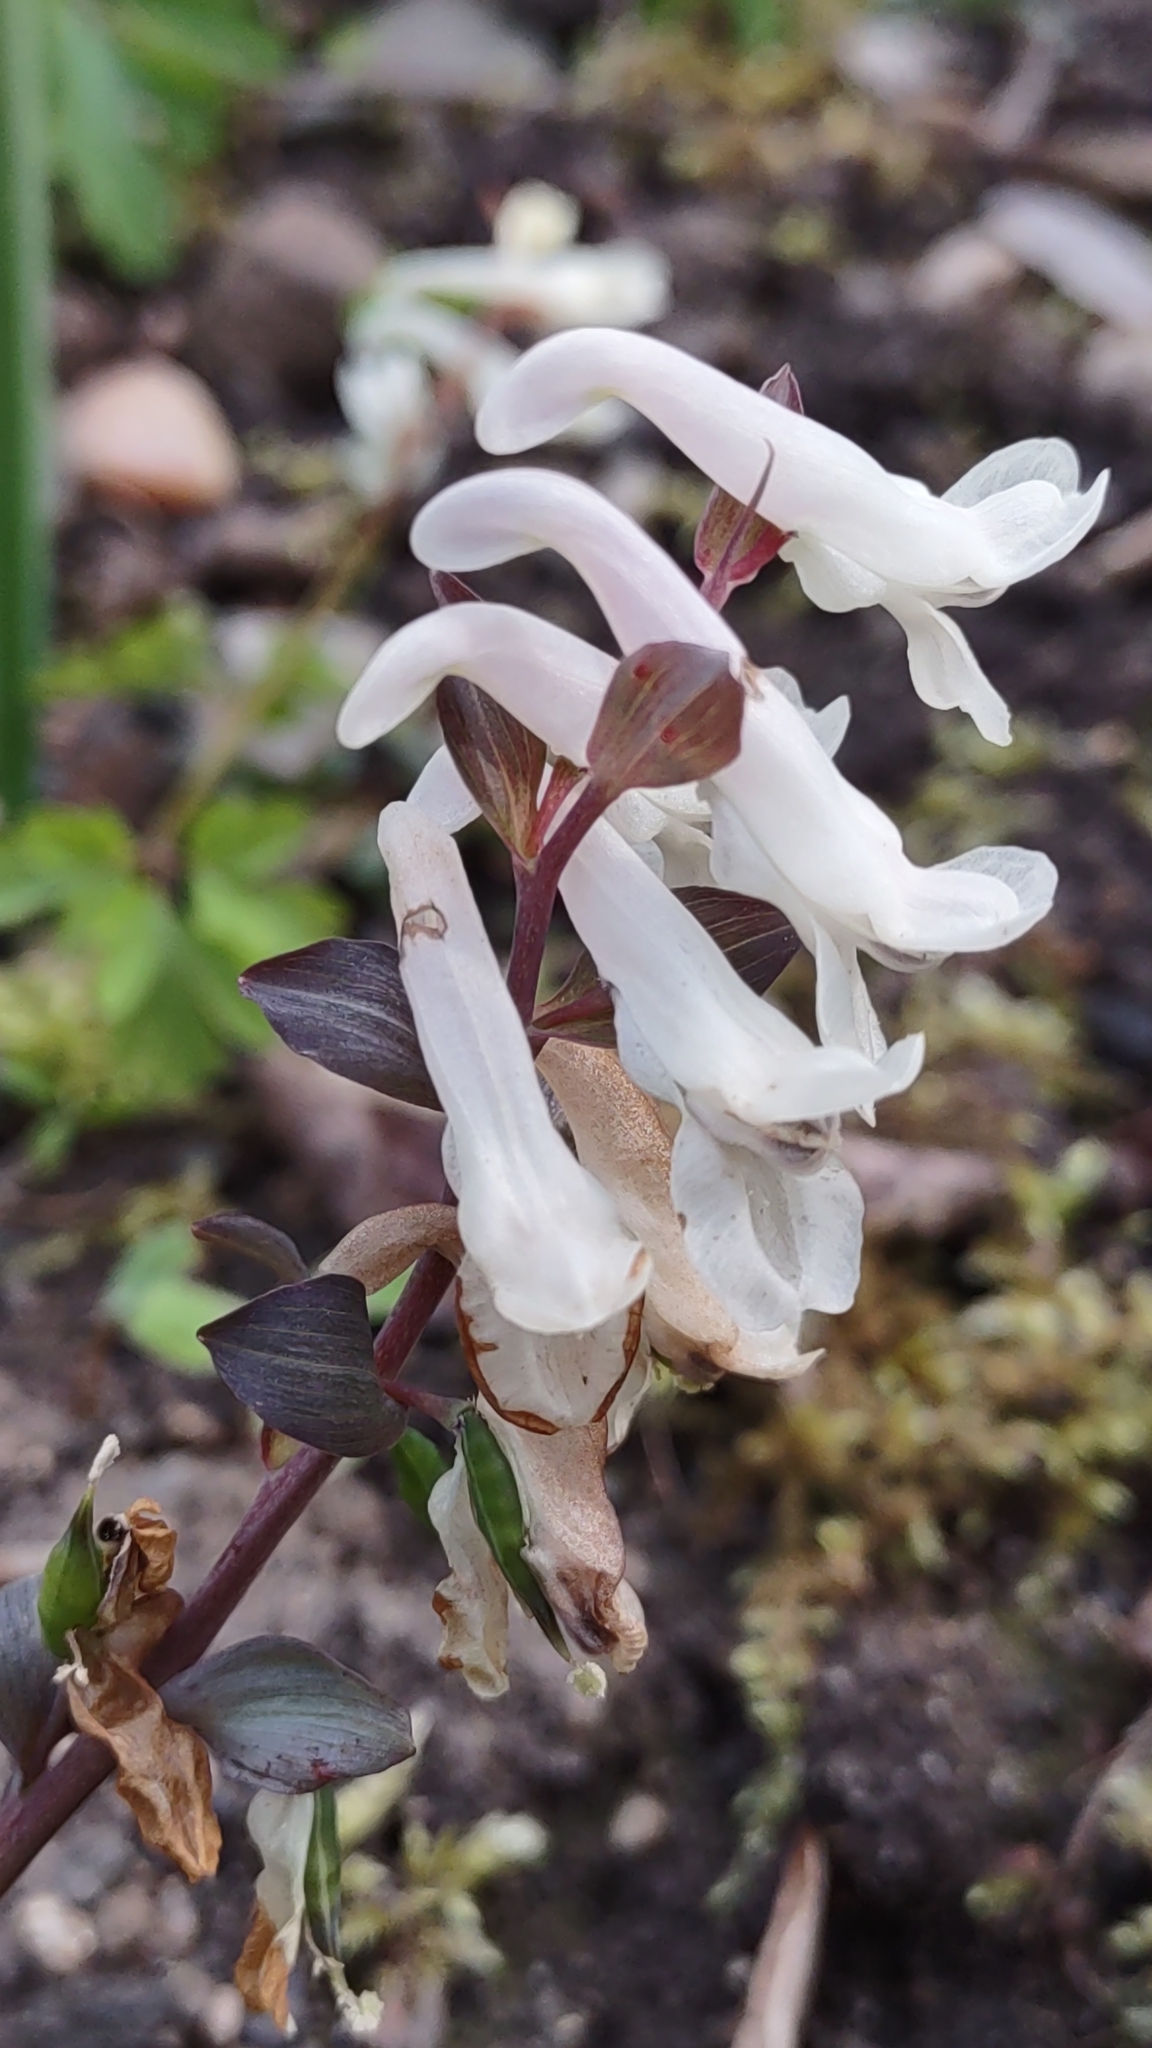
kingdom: Plantae
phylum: Tracheophyta
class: Magnoliopsida
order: Ranunculales
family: Papaveraceae
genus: Corydalis
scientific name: Corydalis cava
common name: Hollowroot
